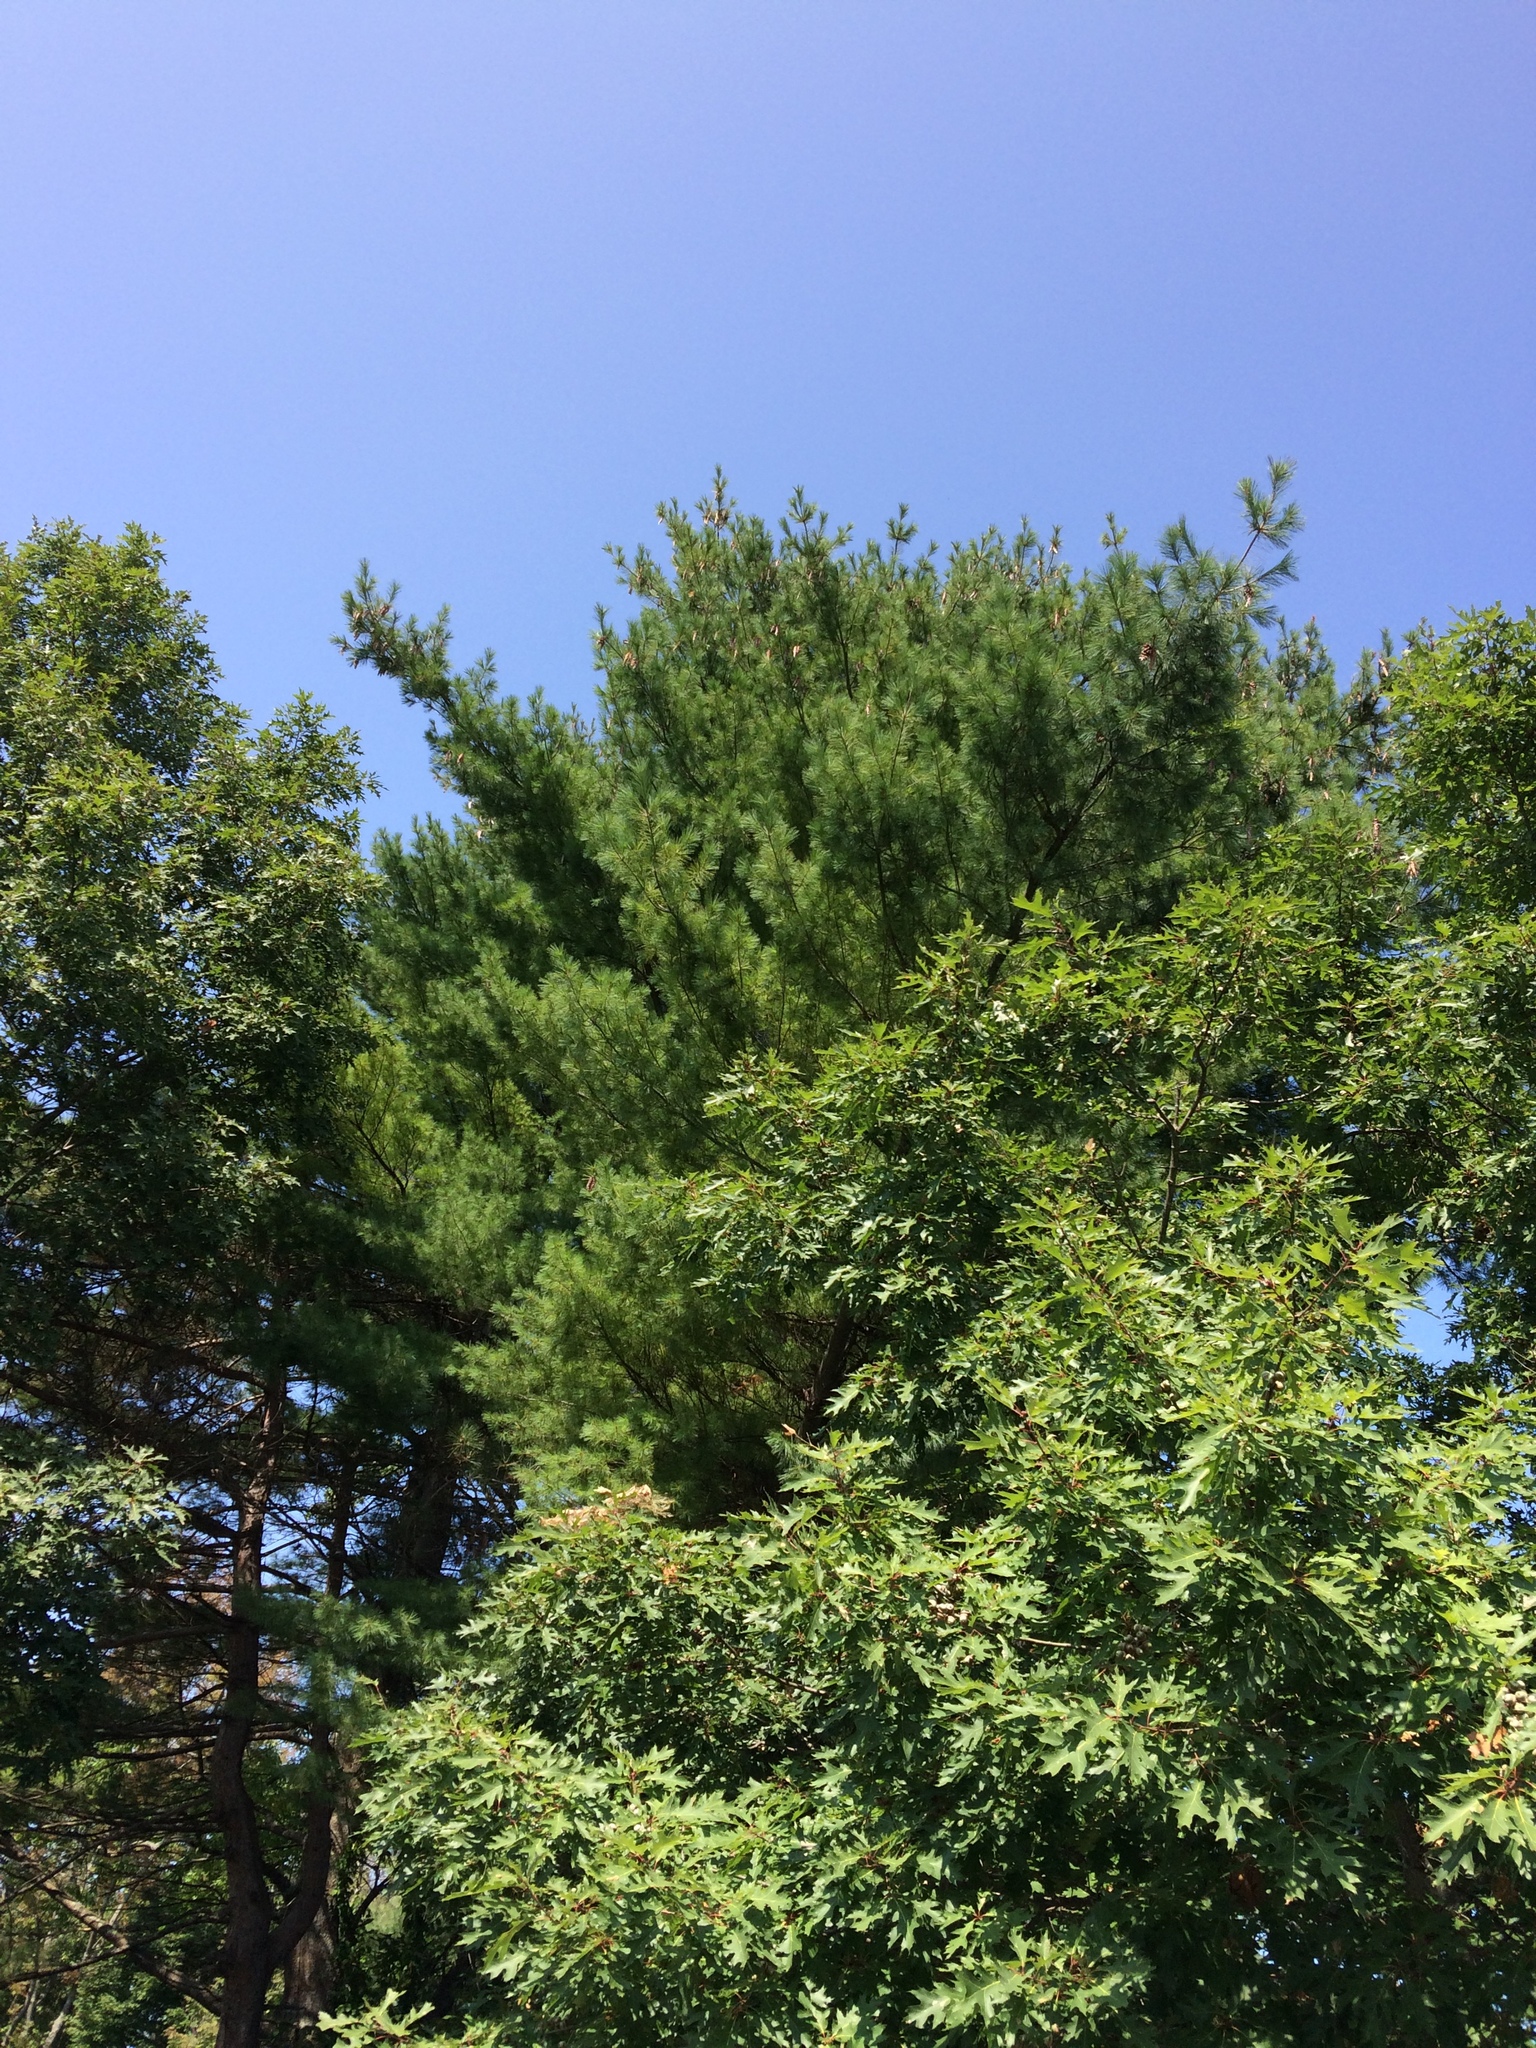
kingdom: Plantae
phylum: Tracheophyta
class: Pinopsida
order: Pinales
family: Pinaceae
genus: Pinus
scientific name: Pinus strobus
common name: Weymouth pine
